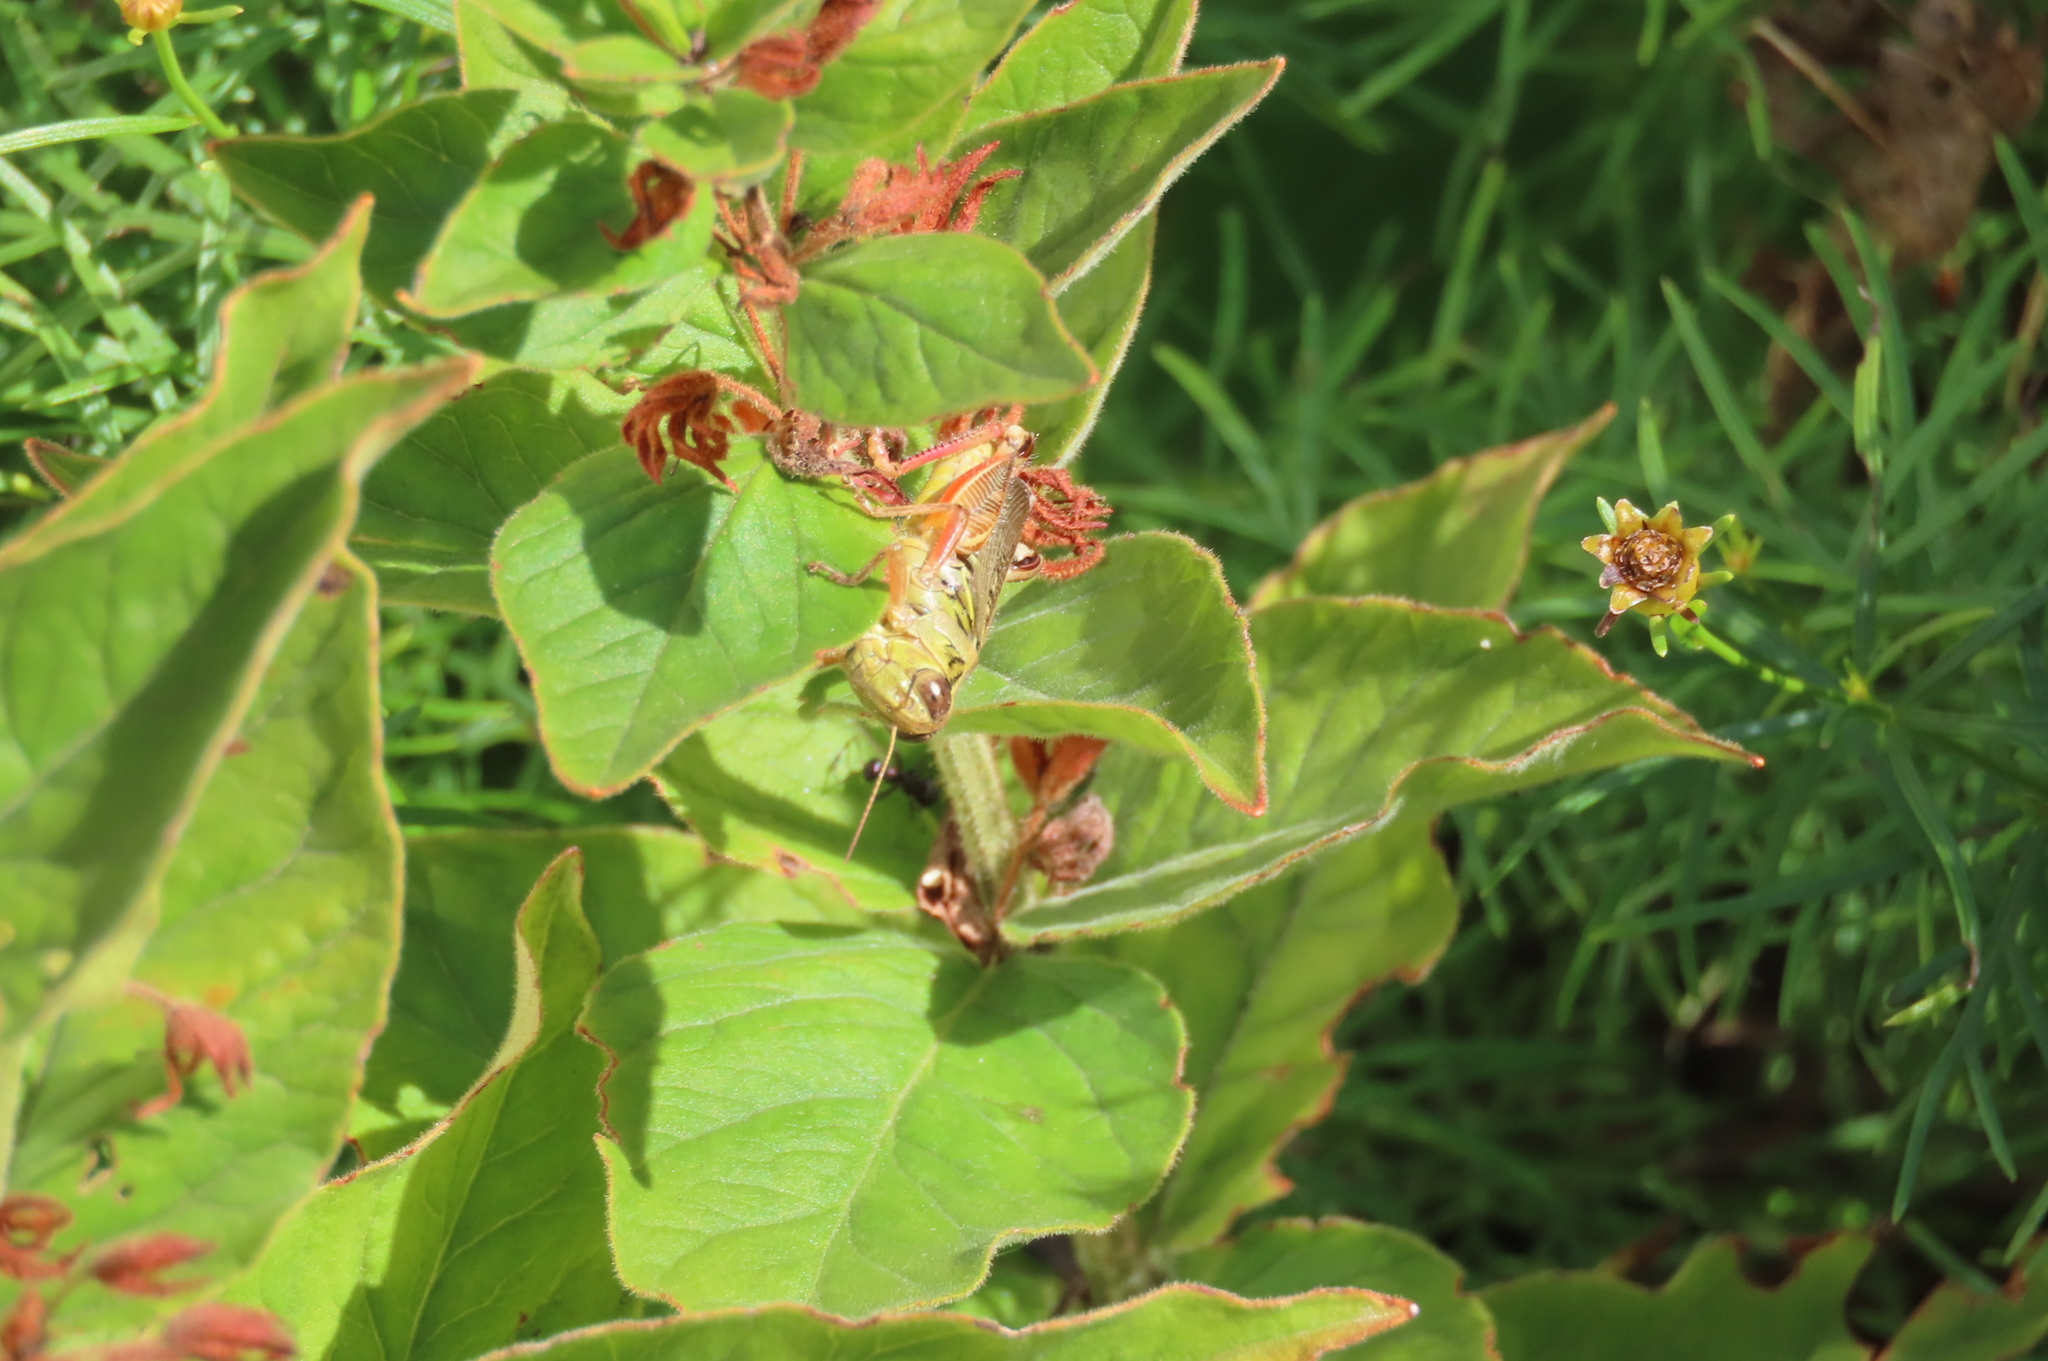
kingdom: Animalia
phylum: Arthropoda
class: Insecta
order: Orthoptera
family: Acrididae
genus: Melanoplus
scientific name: Melanoplus femurrubrum
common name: Red-legged grasshopper
